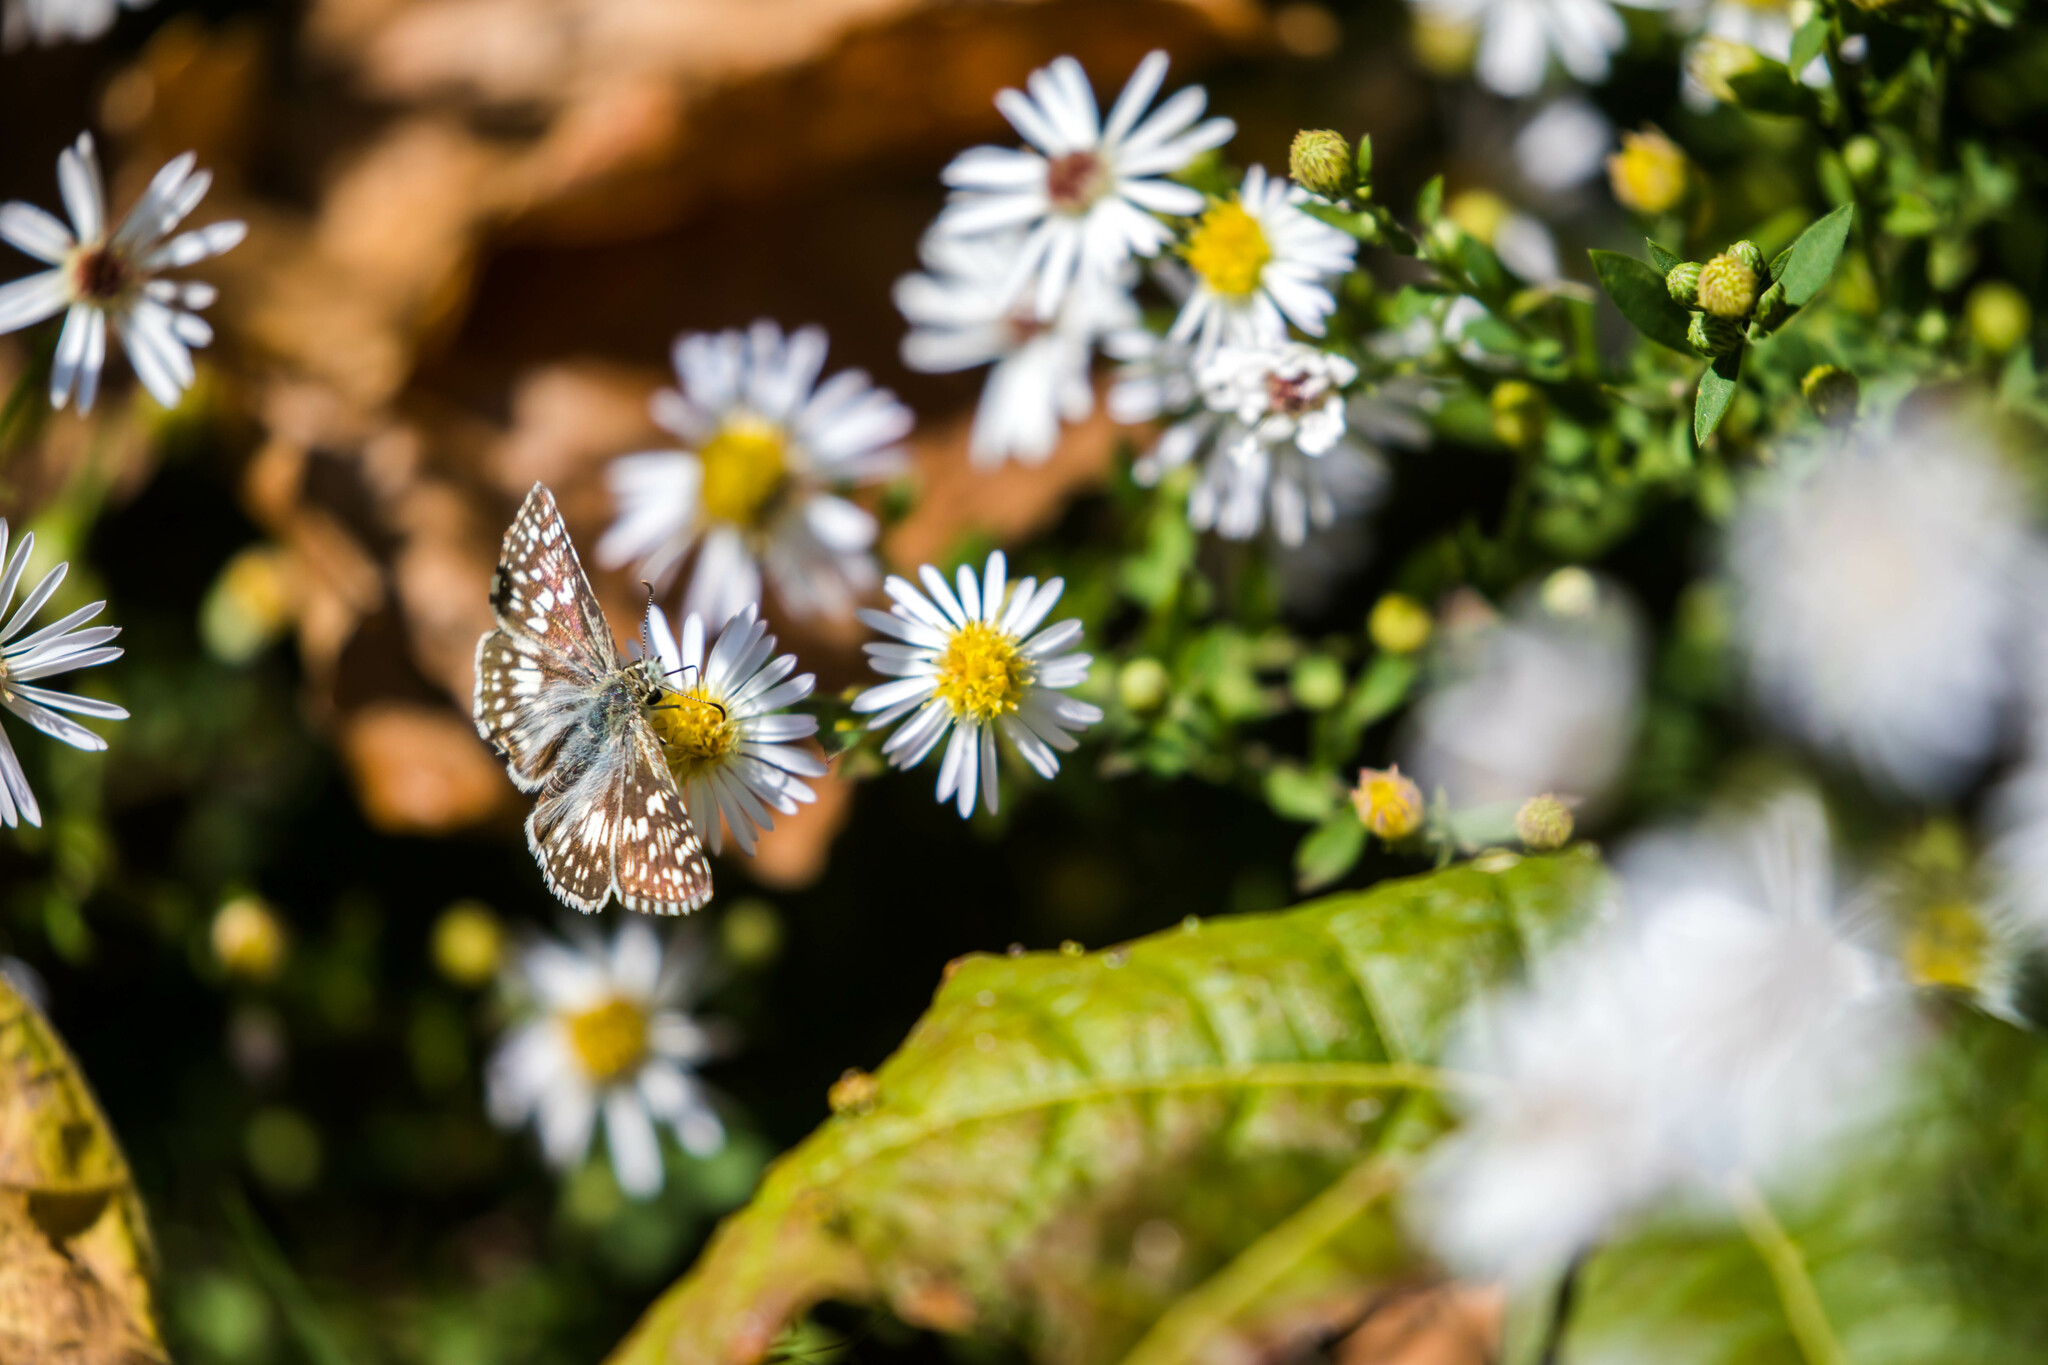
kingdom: Animalia
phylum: Arthropoda
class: Insecta
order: Lepidoptera
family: Hesperiidae
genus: Burnsius
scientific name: Burnsius communis
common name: Common checkered-skipper
